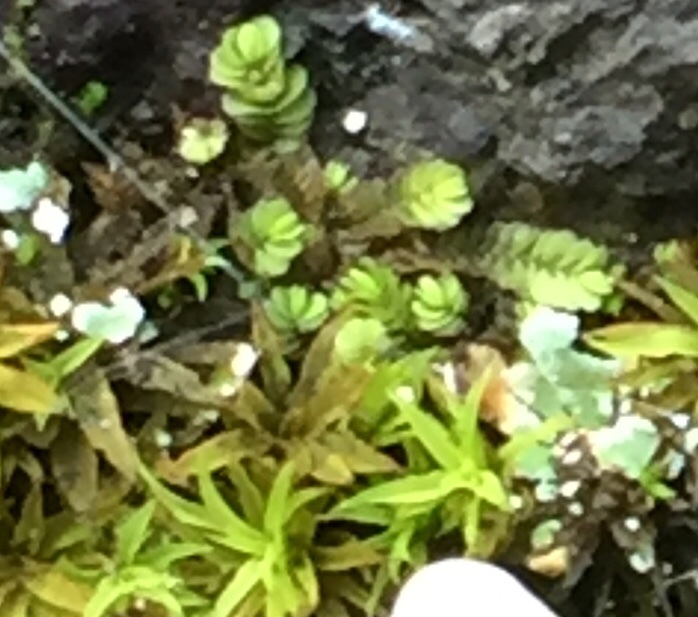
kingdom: Plantae
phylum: Marchantiophyta
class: Jungermanniopsida
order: Jungermanniales
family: Southbyaceae
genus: Gongylanthus
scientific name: Gongylanthus ericetorum
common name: Heath pouchwort
